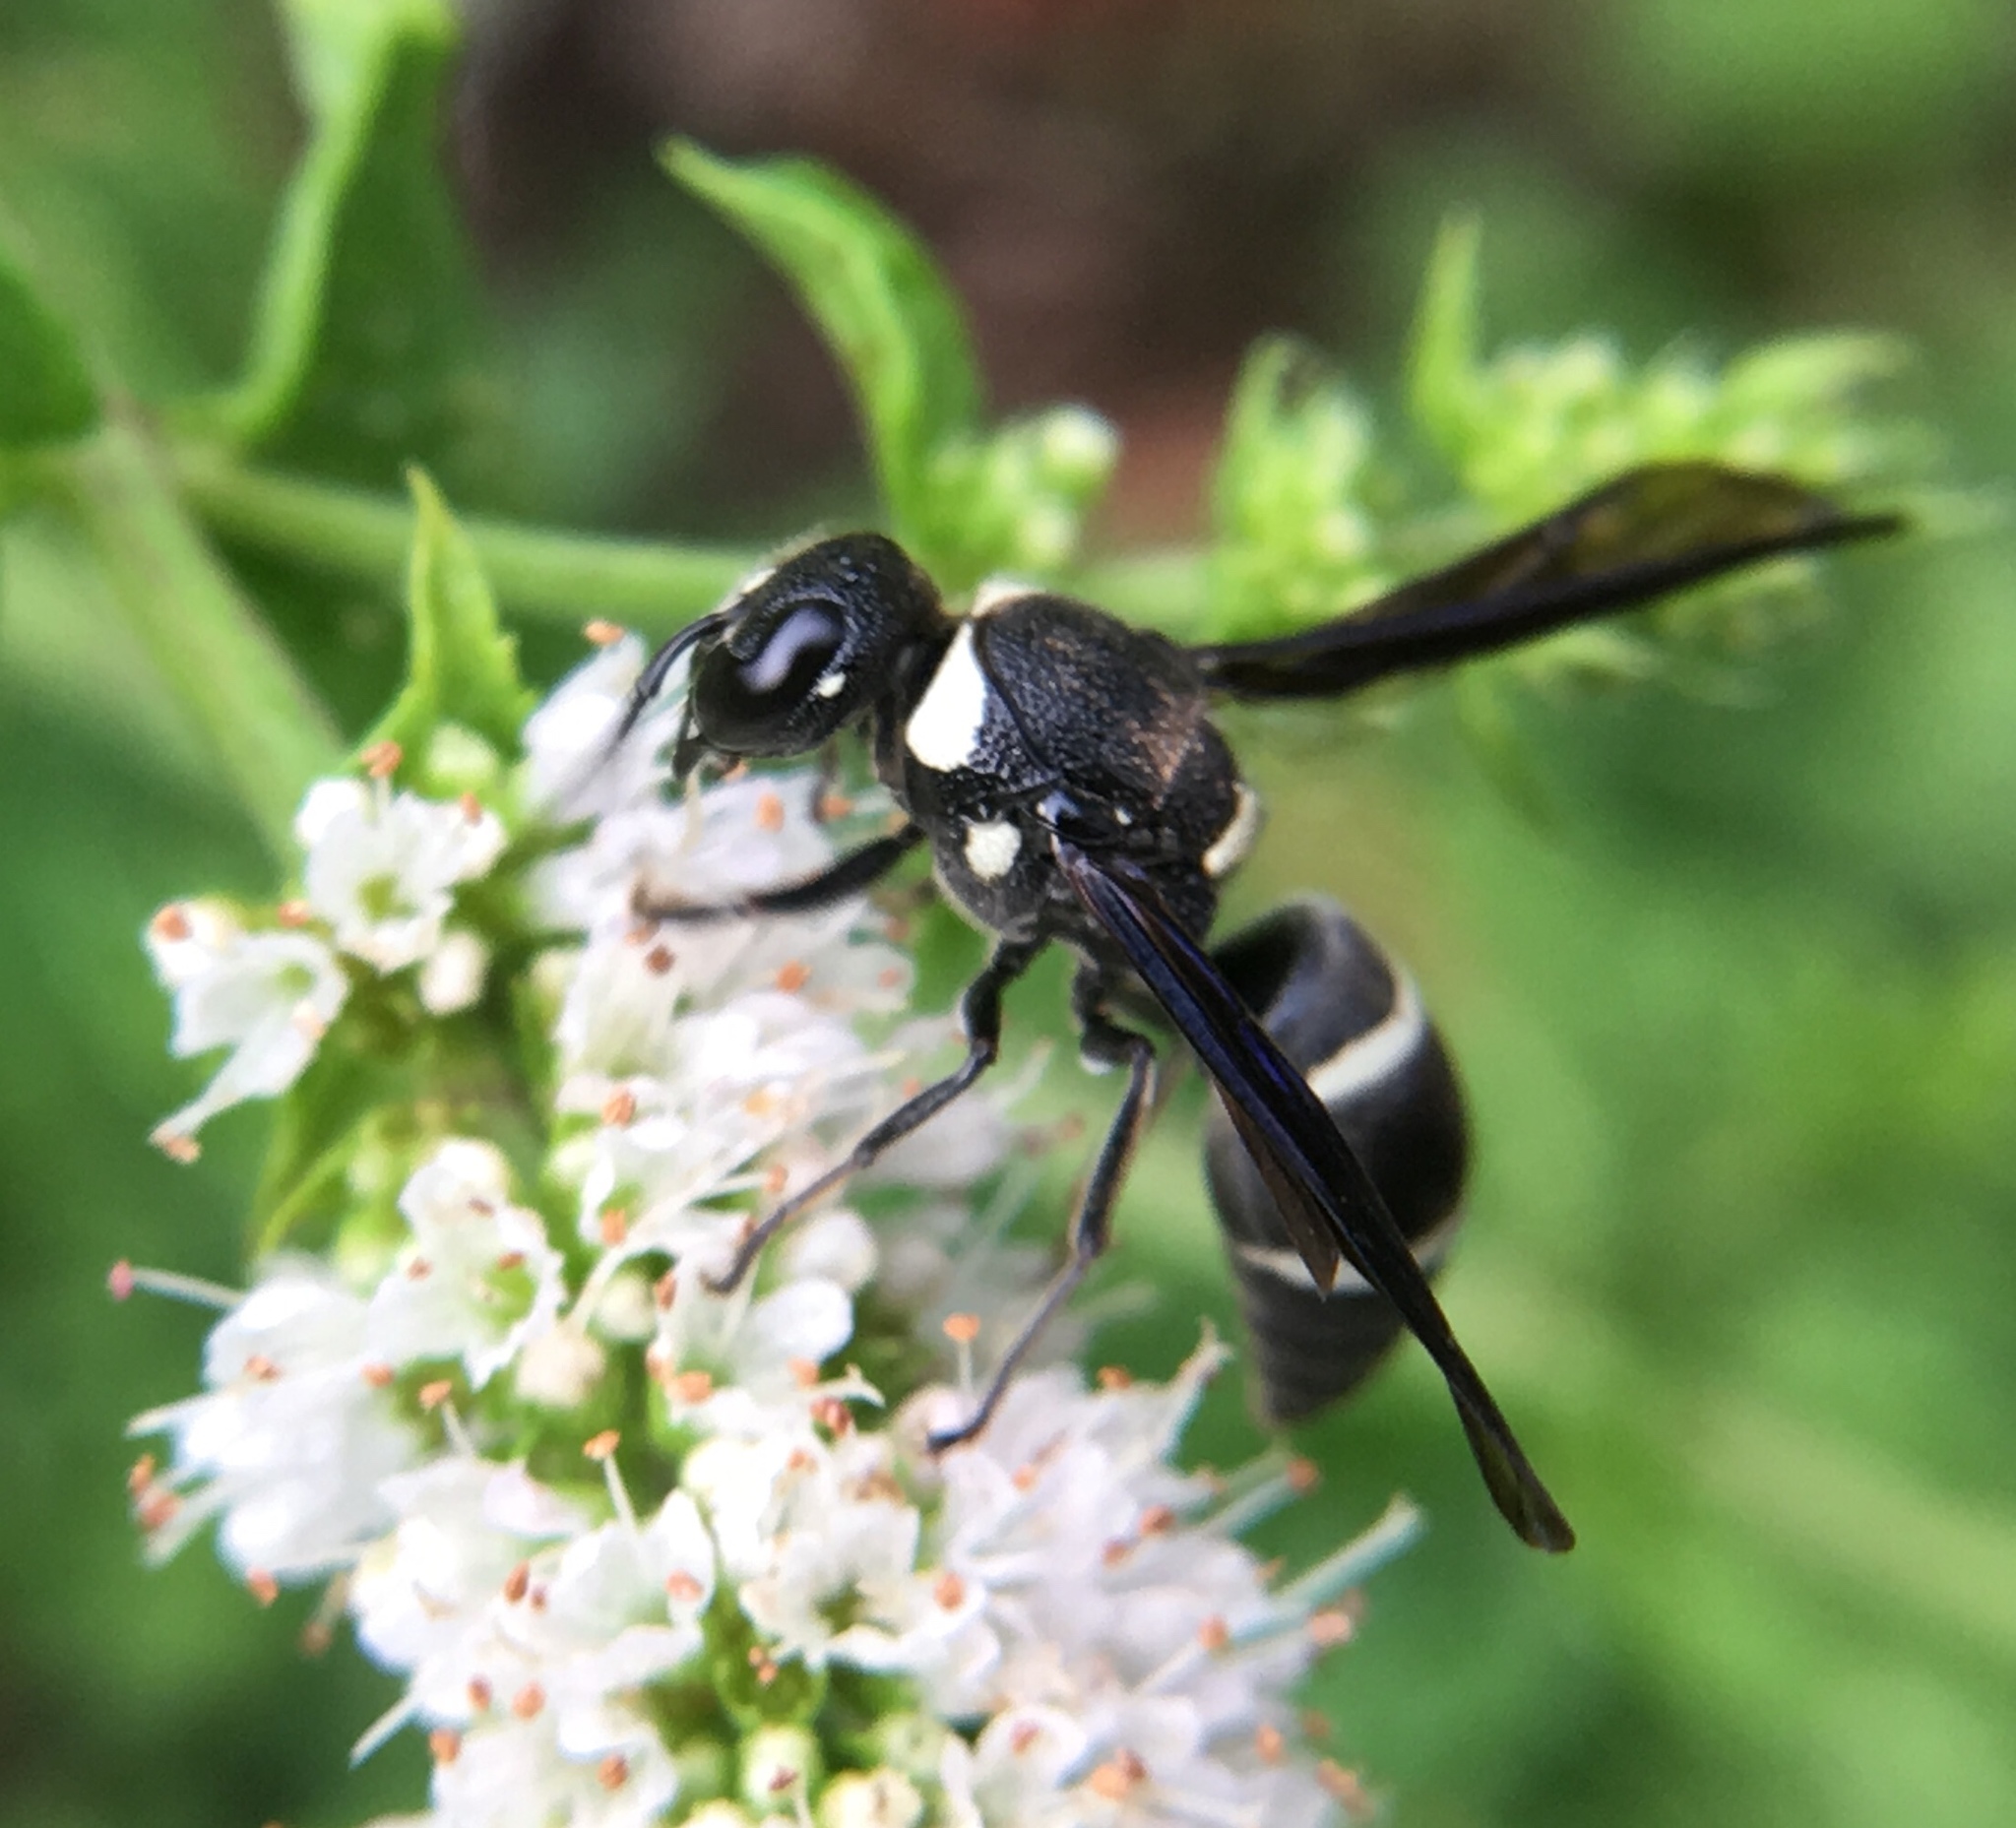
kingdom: Animalia
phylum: Arthropoda
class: Insecta
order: Hymenoptera
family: Eumenidae
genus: Euodynerus
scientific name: Euodynerus megaera
